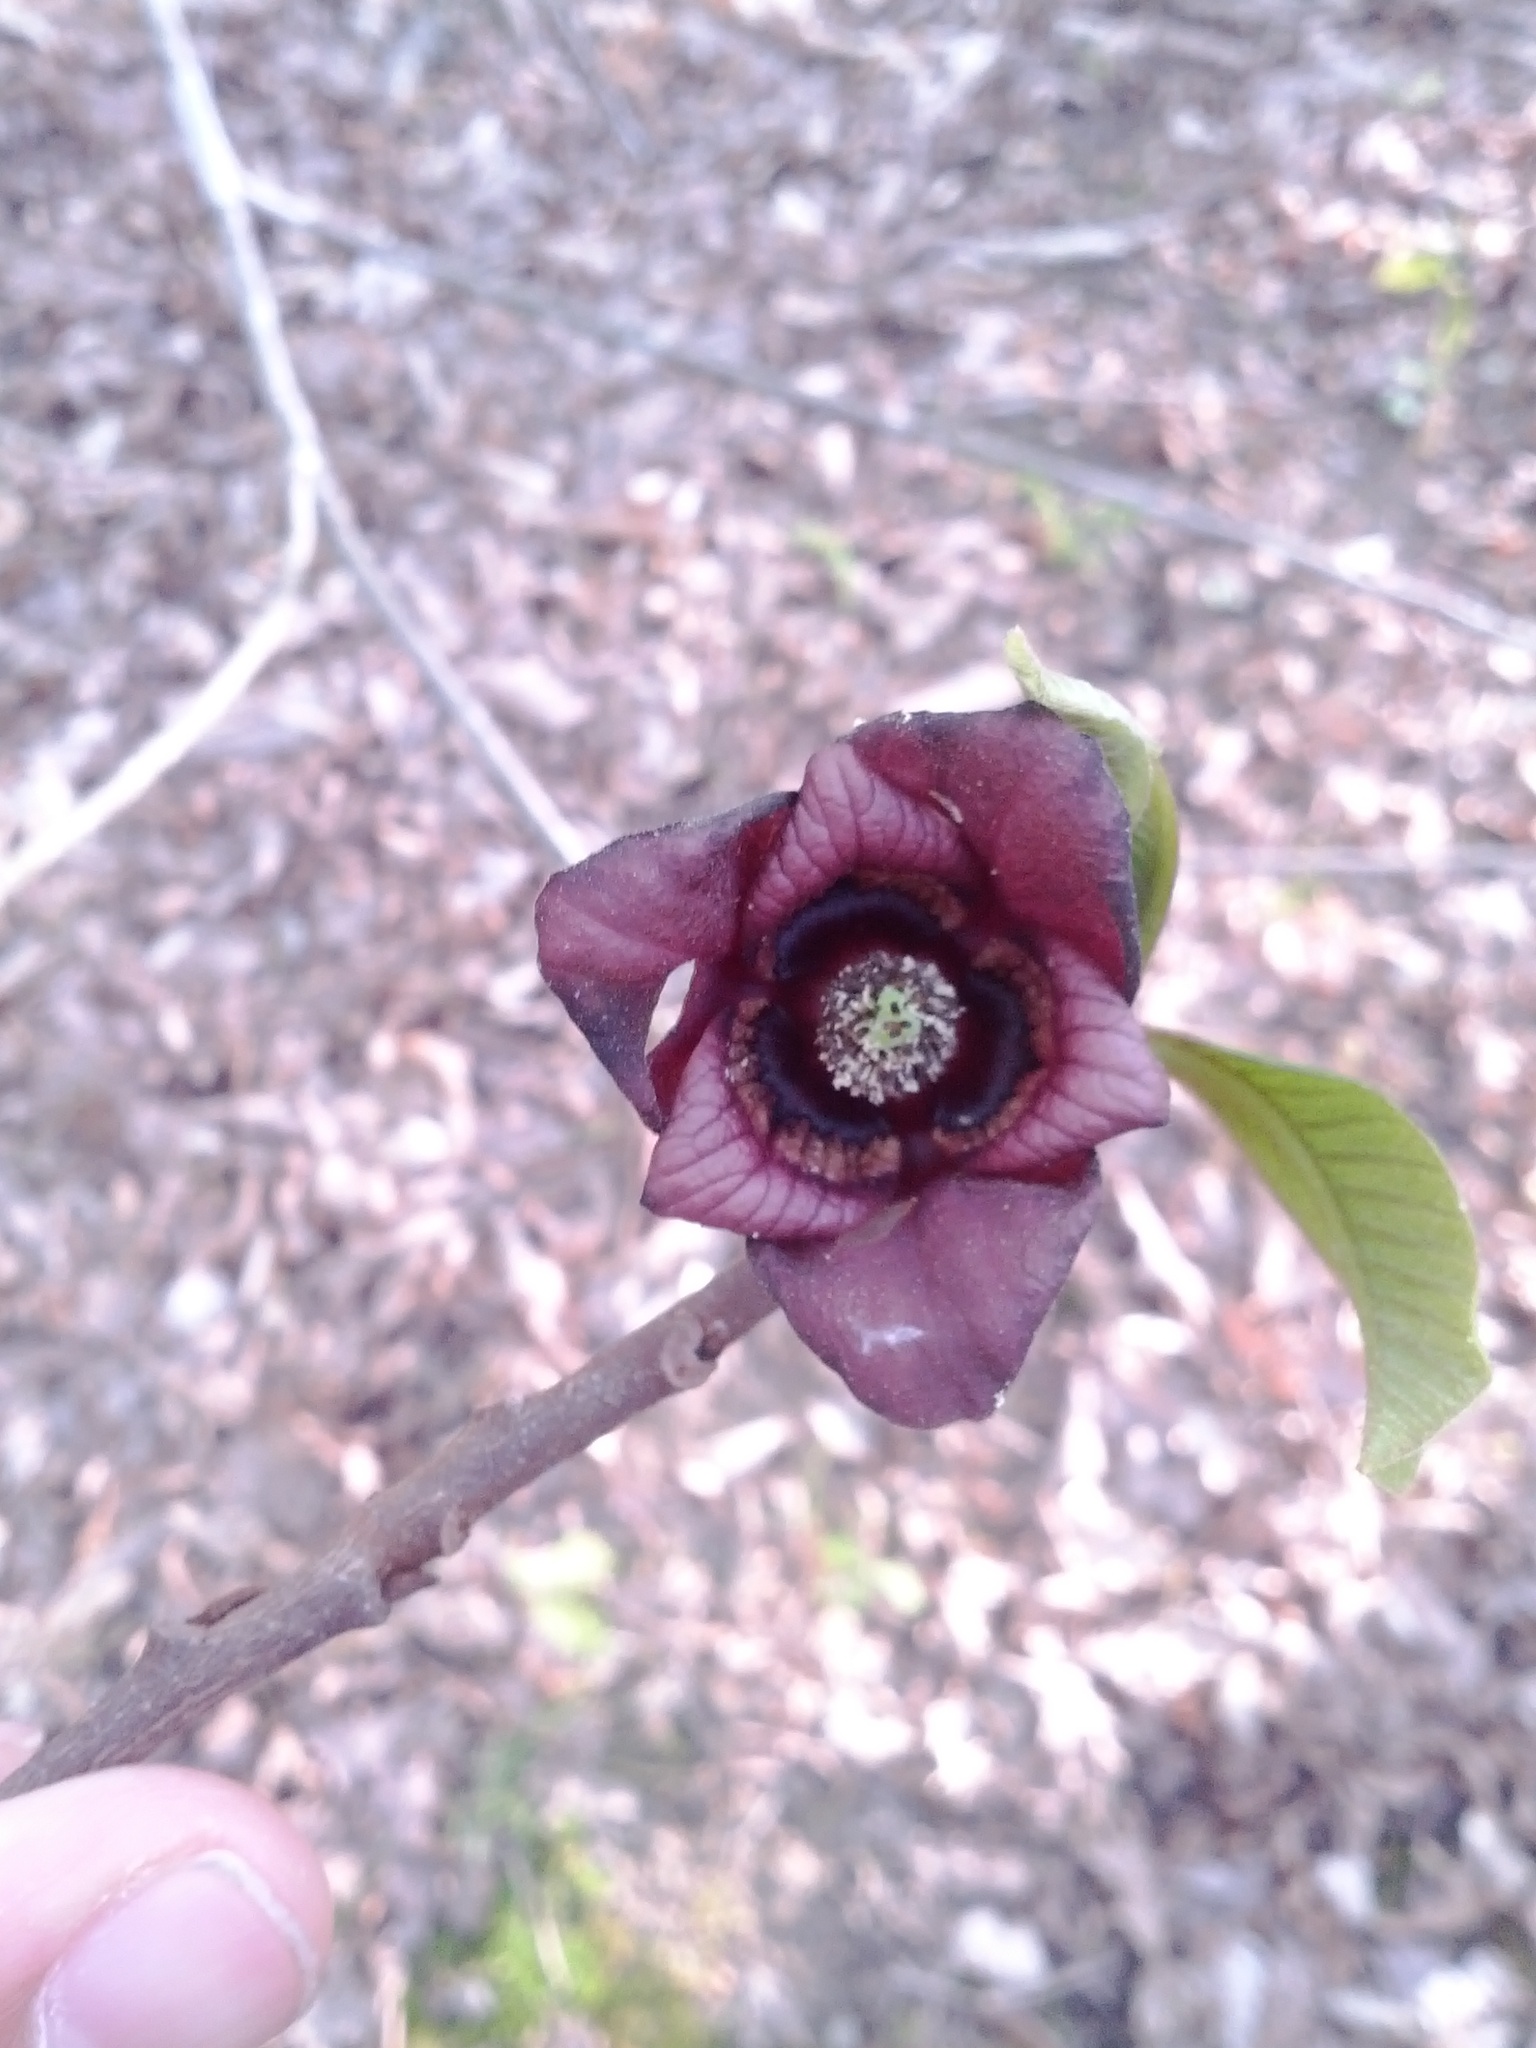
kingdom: Plantae
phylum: Tracheophyta
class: Magnoliopsida
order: Magnoliales
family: Annonaceae
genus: Asimina
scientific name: Asimina triloba
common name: Dog-banana
